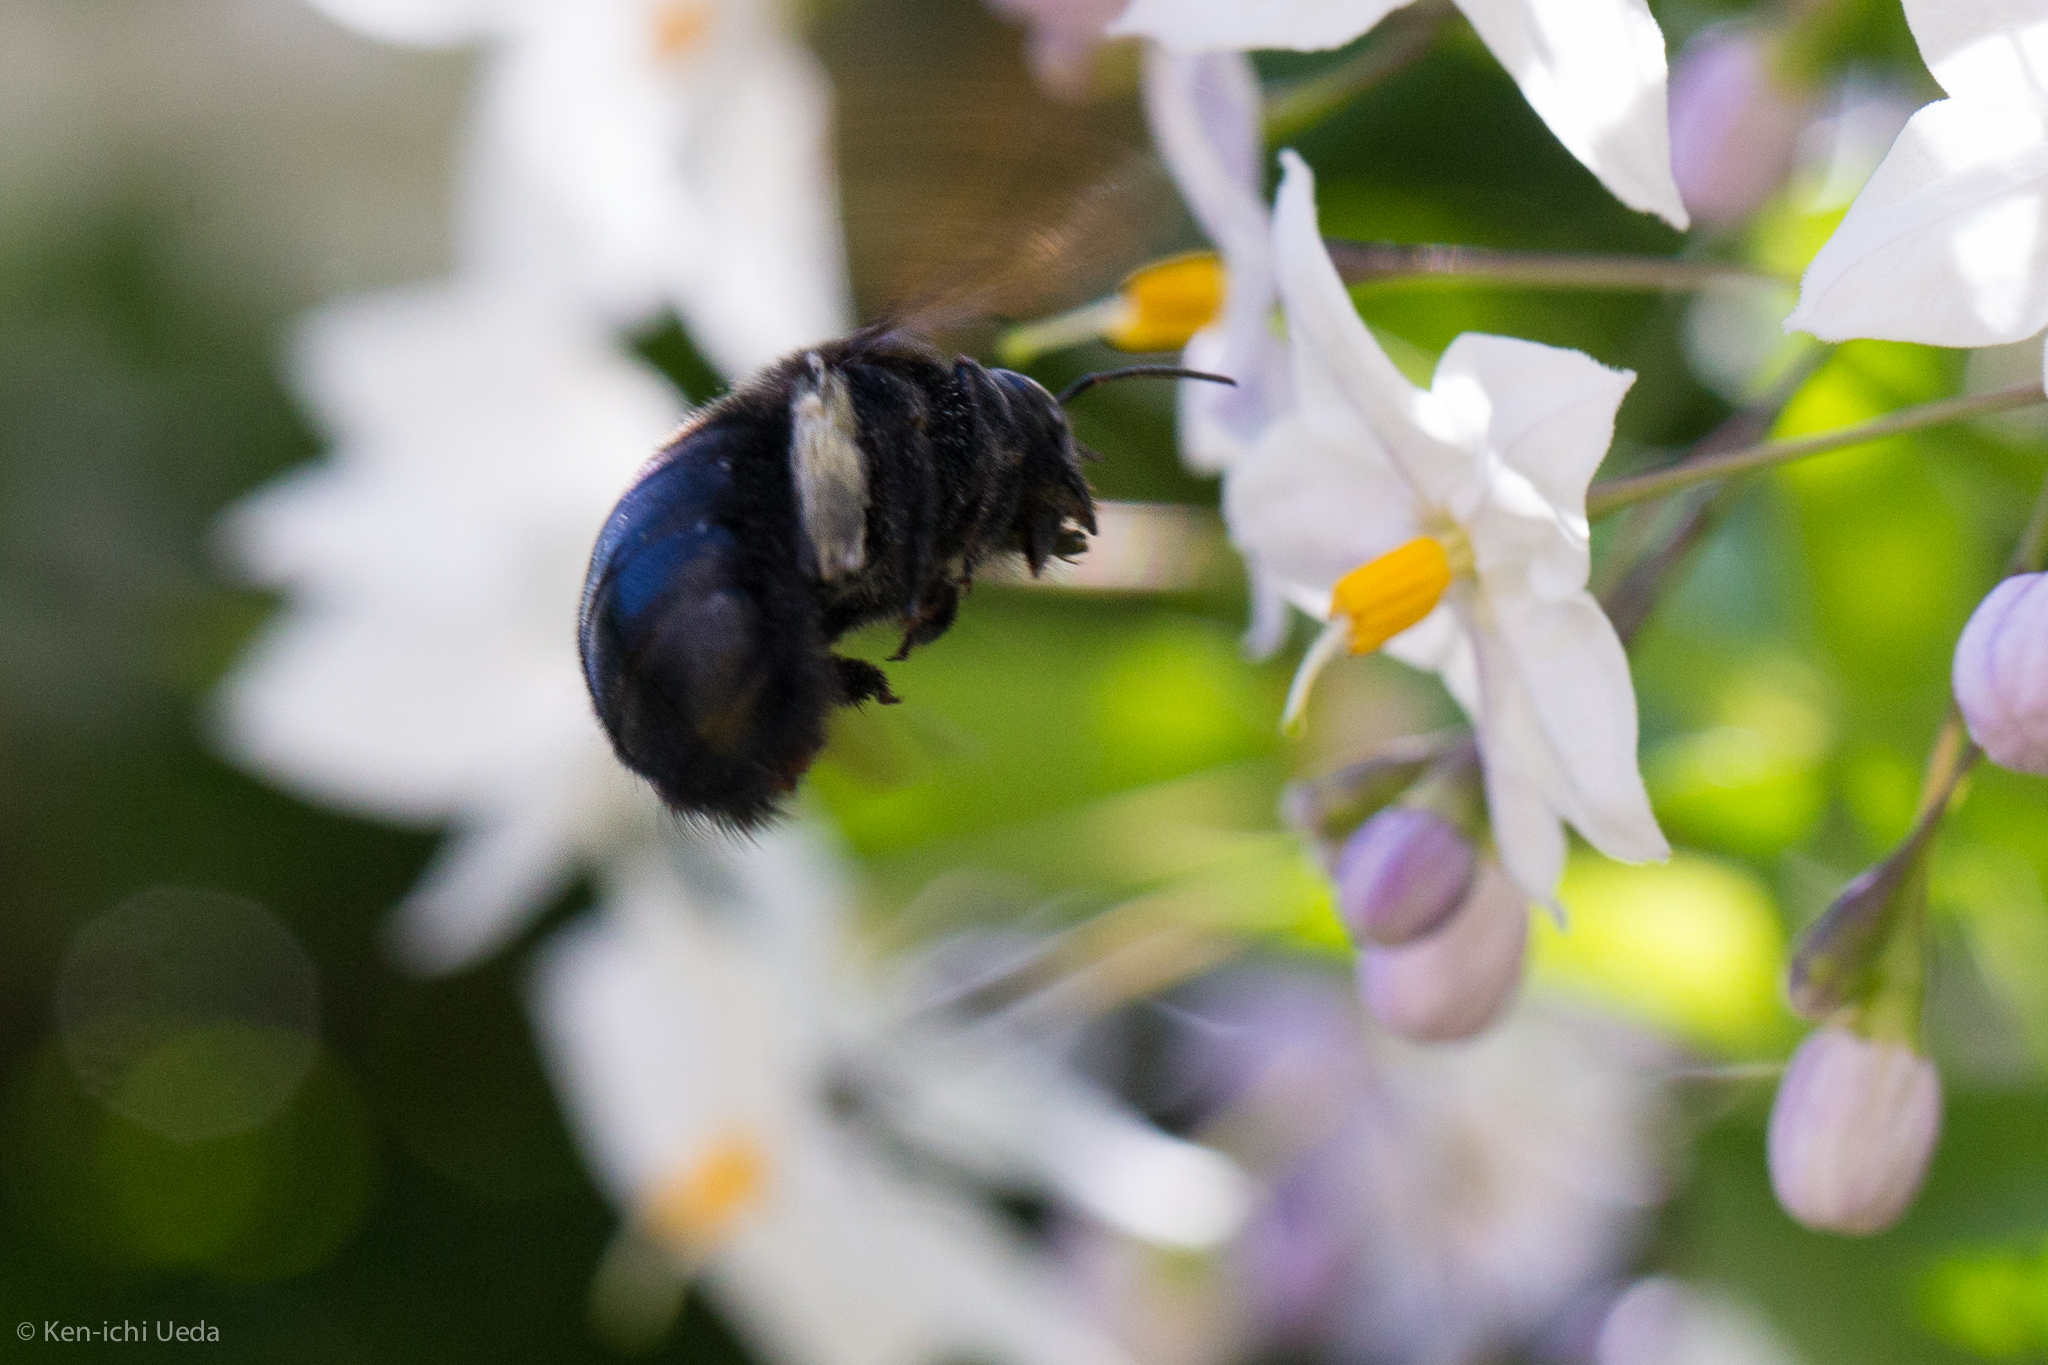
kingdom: Animalia
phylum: Arthropoda
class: Insecta
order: Hymenoptera
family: Apidae
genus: Xylocopa
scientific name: Xylocopa sonorina
